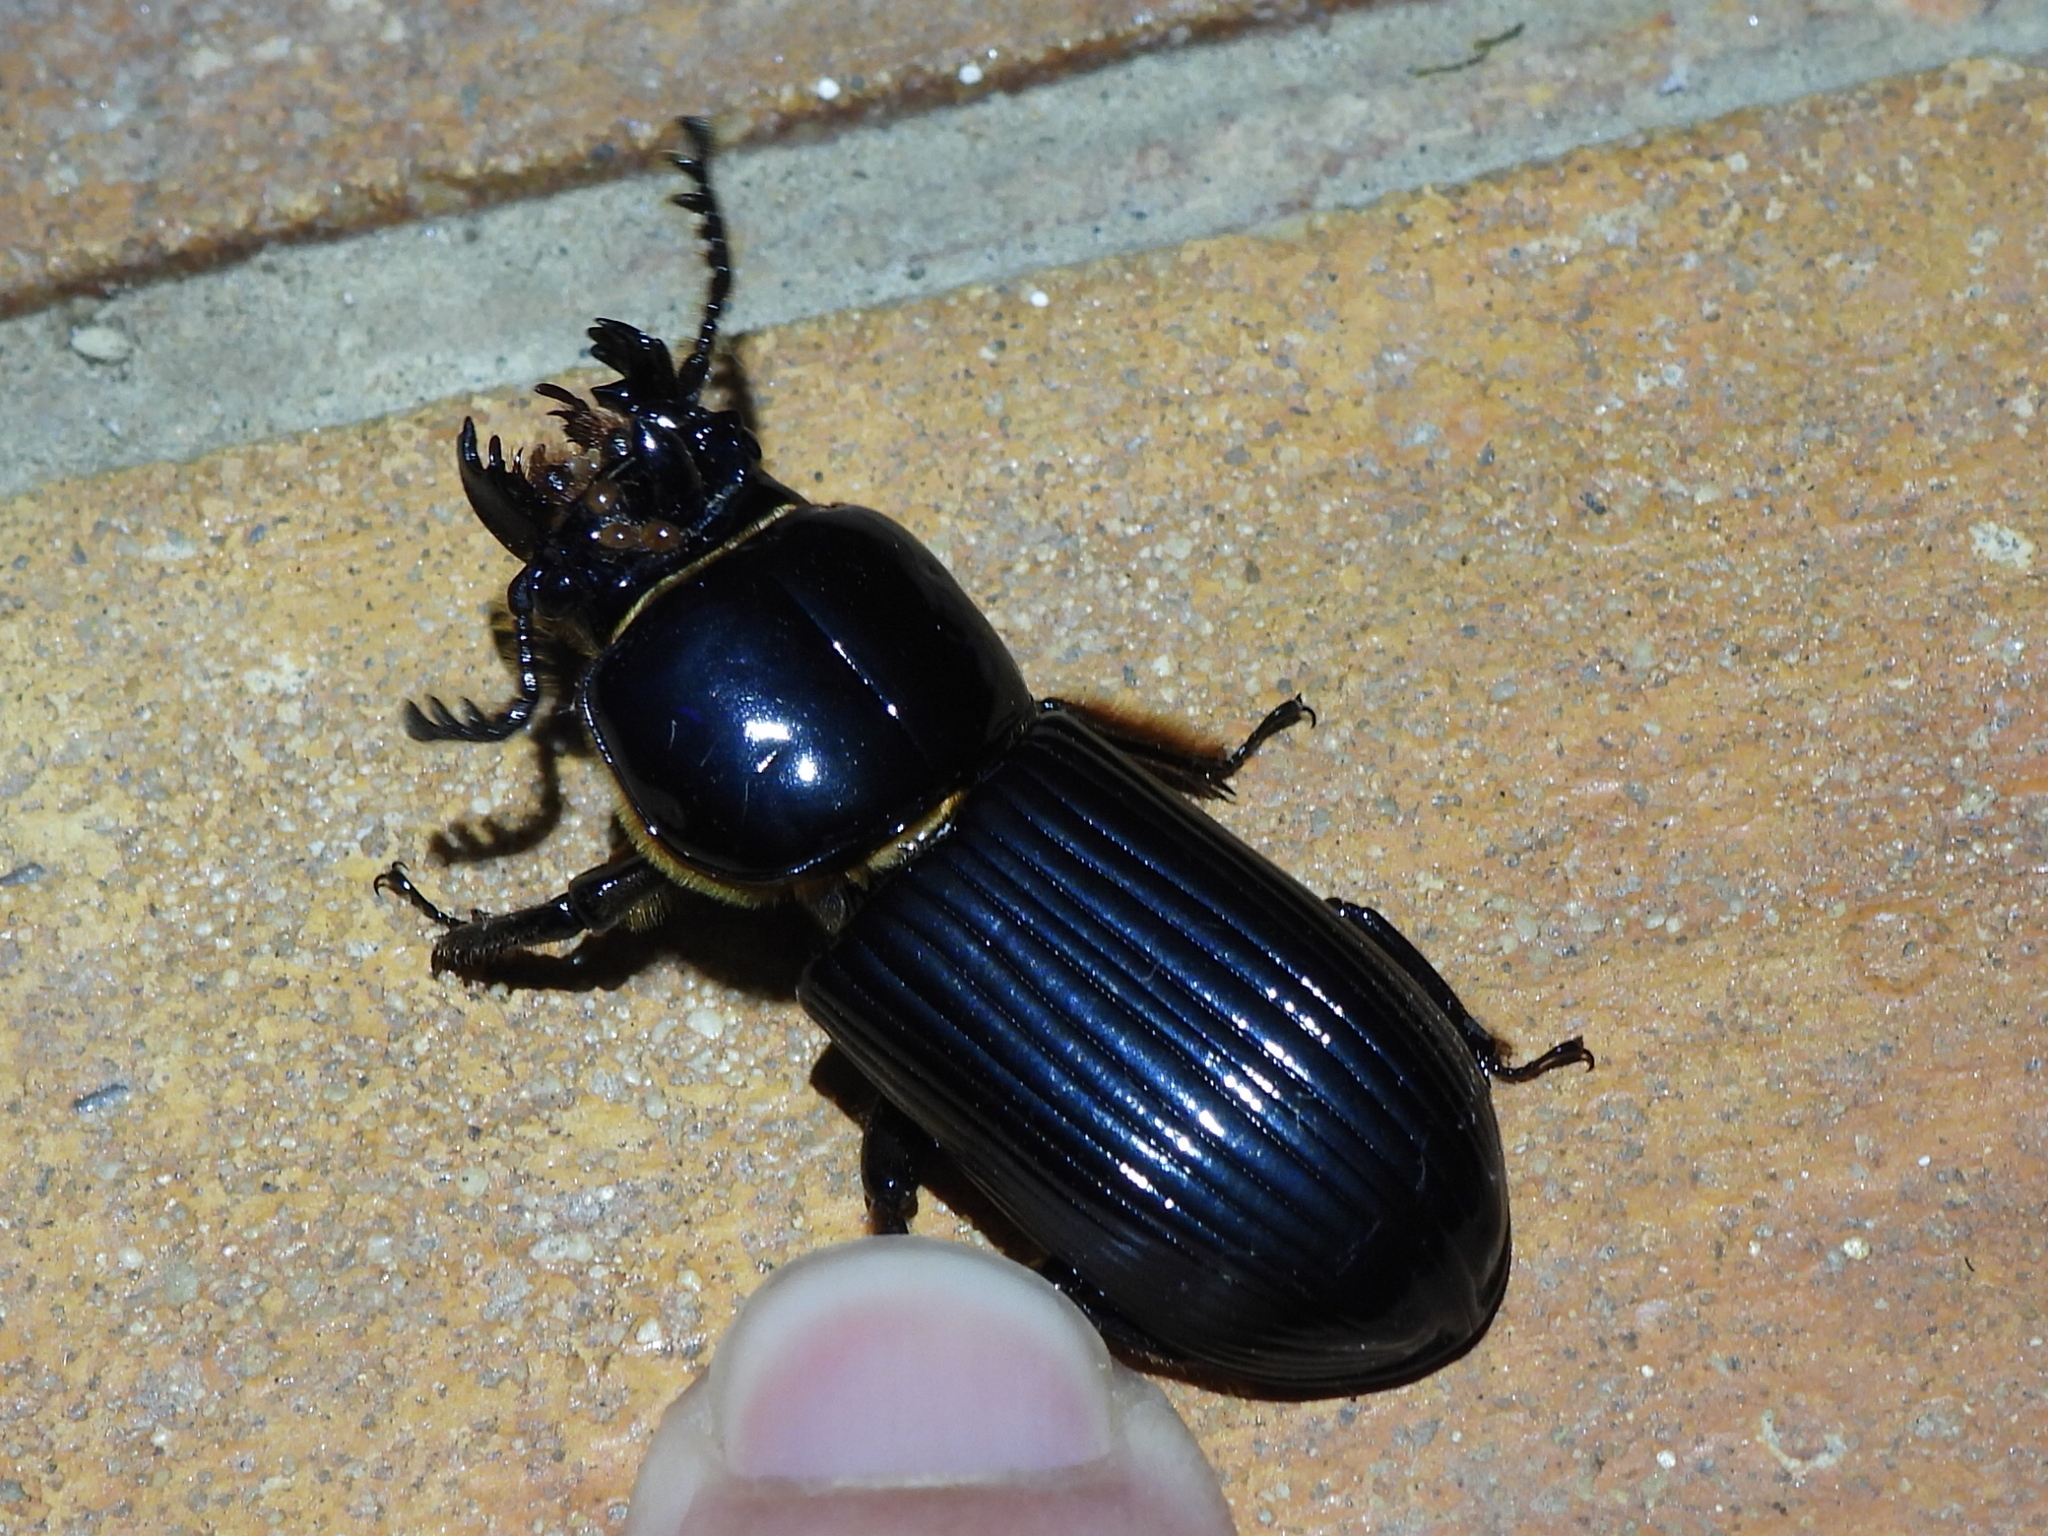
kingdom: Animalia
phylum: Arthropoda
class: Insecta
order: Coleoptera
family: Passalidae
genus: Odontotaenius
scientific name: Odontotaenius disjunctus
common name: Patent leather beetle
